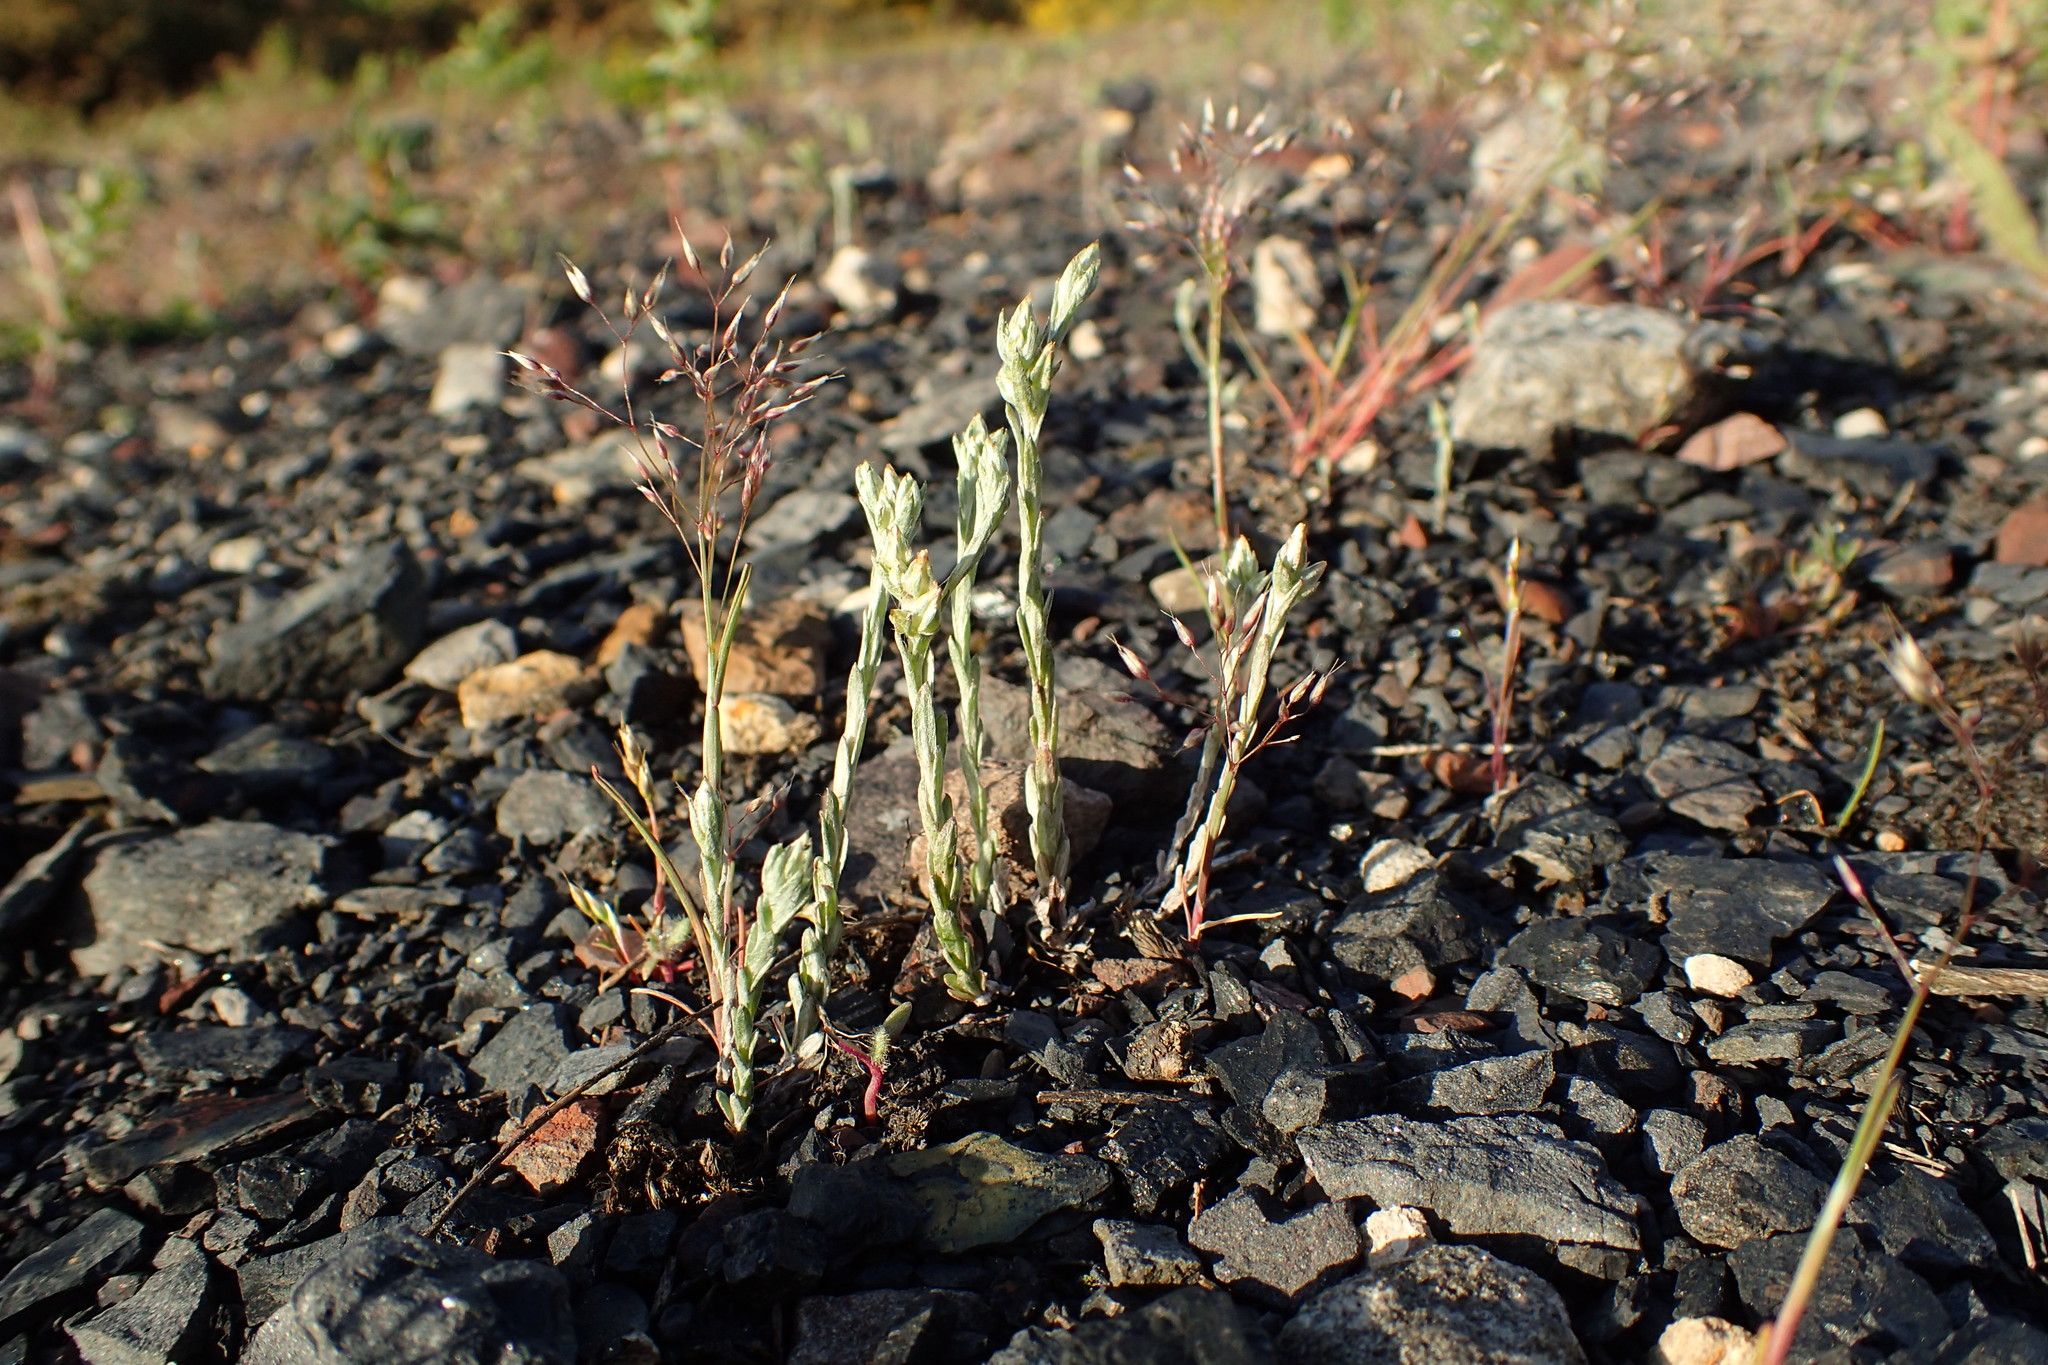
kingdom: Plantae
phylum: Tracheophyta
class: Magnoliopsida
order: Asterales
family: Asteraceae
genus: Logfia
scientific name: Logfia minima
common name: Little cottonrose
